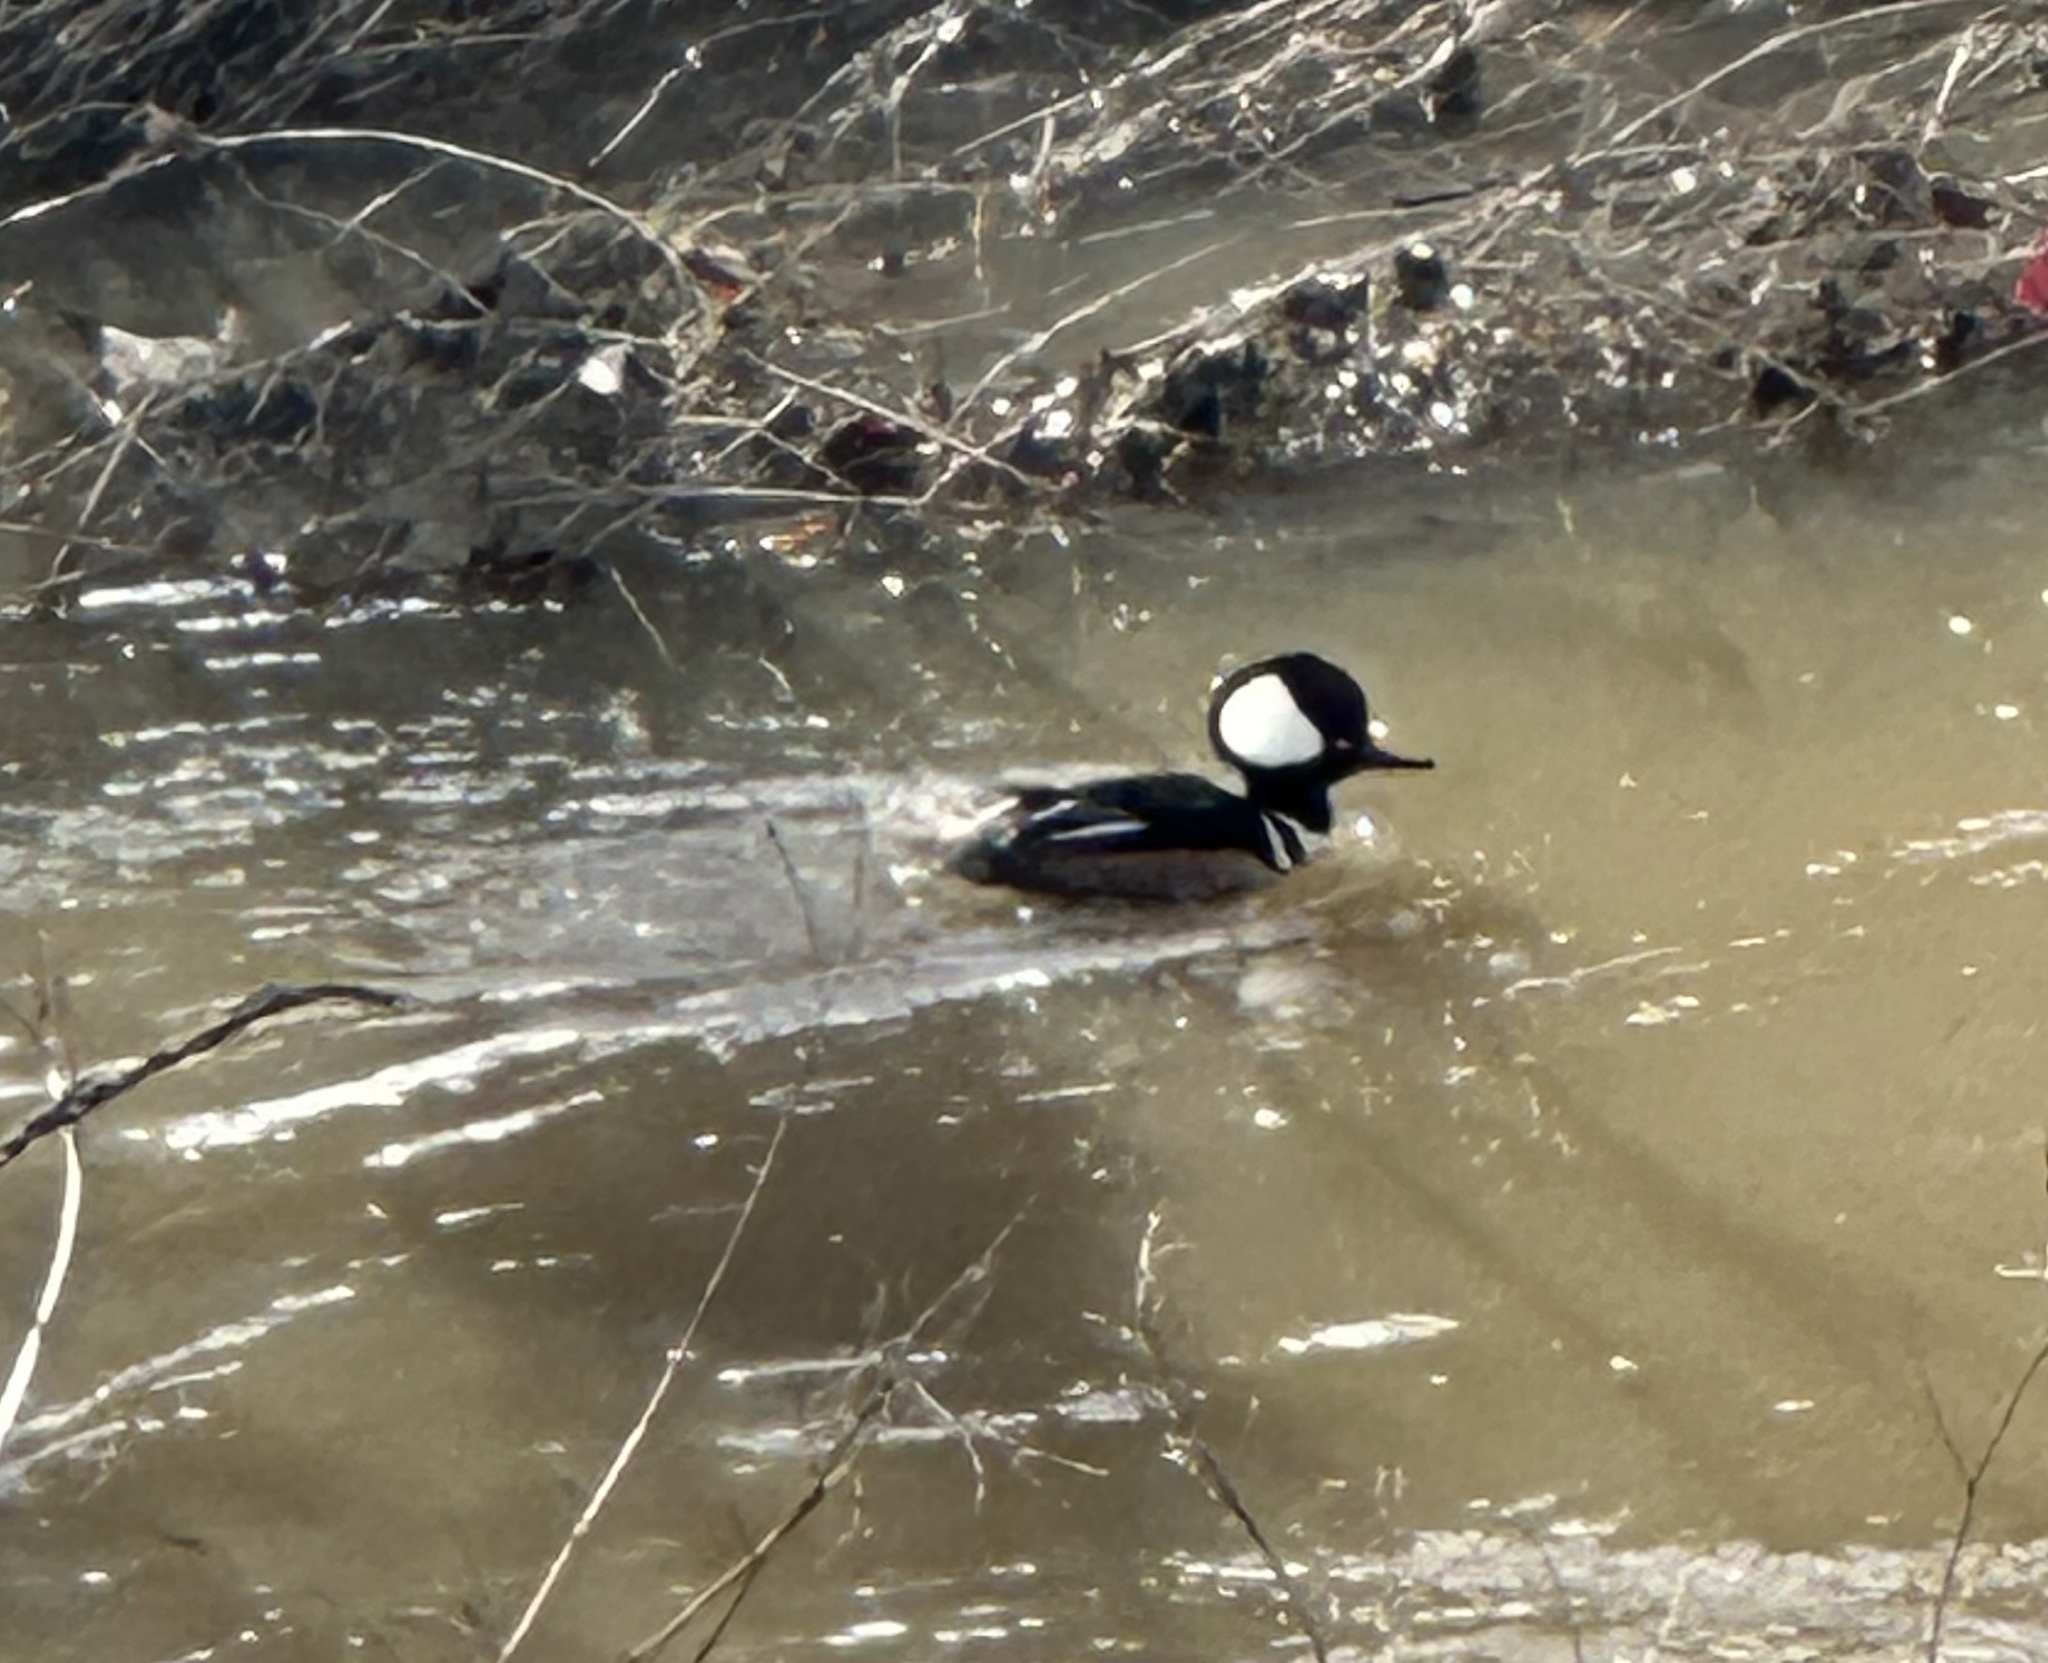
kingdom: Animalia
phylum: Chordata
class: Aves
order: Anseriformes
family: Anatidae
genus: Lophodytes
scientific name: Lophodytes cucullatus
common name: Hooded merganser
